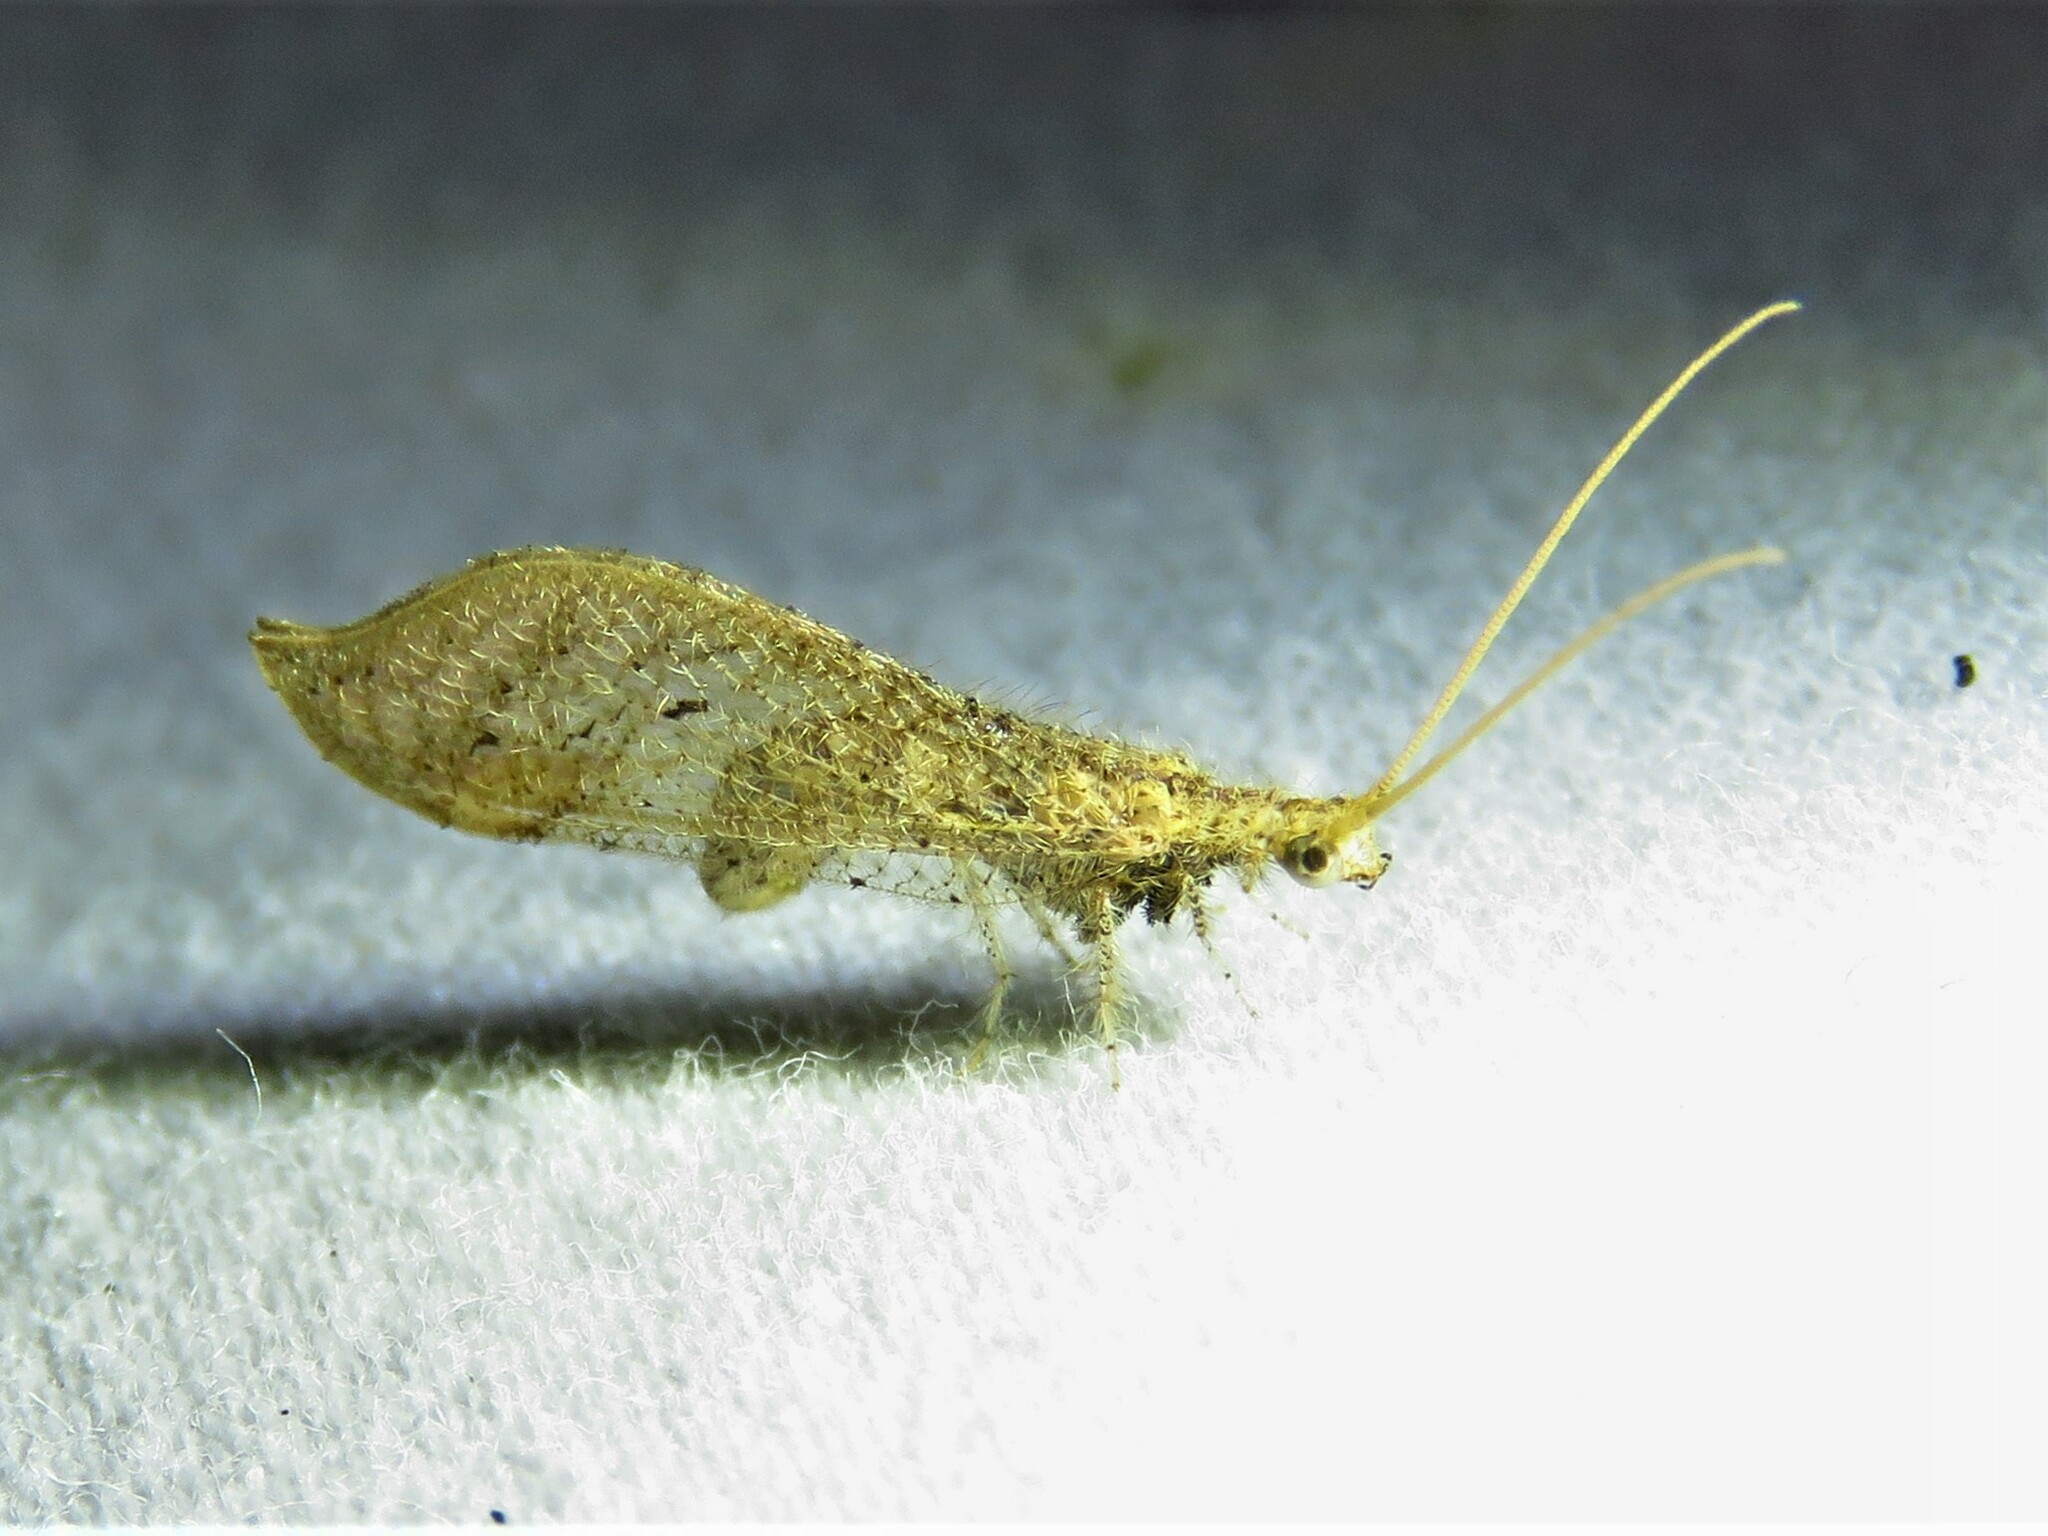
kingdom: Animalia
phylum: Arthropoda
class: Insecta
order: Neuroptera
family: Berothidae
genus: Lomamyia
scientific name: Lomamyia squamosa
